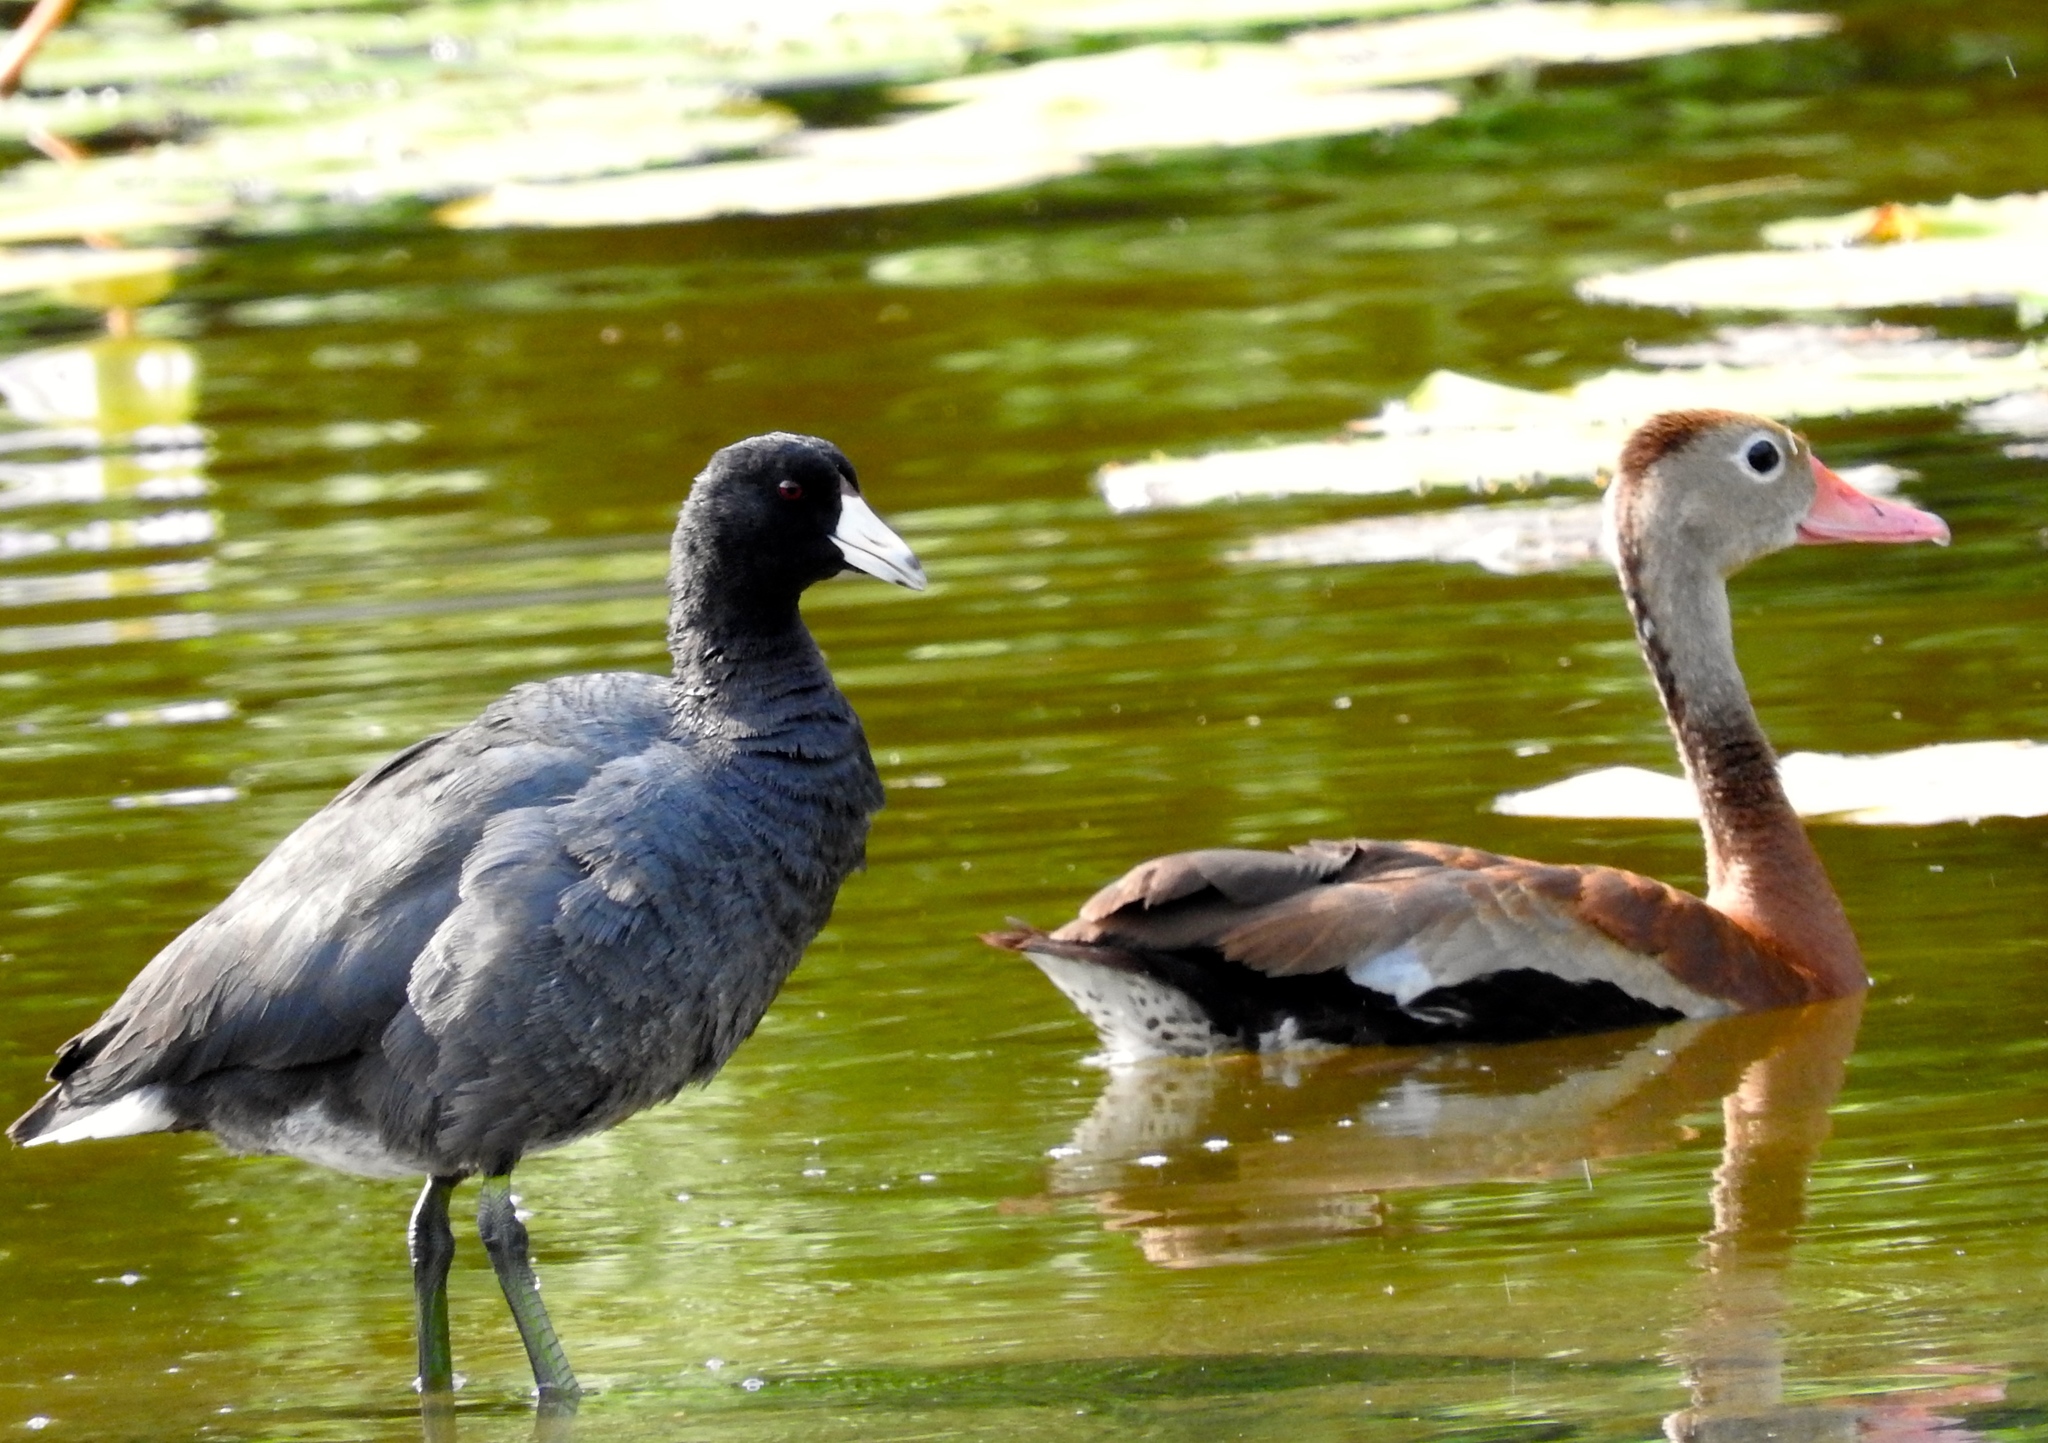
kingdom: Animalia
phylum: Chordata
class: Aves
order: Gruiformes
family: Rallidae
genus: Fulica
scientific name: Fulica americana
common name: American coot
